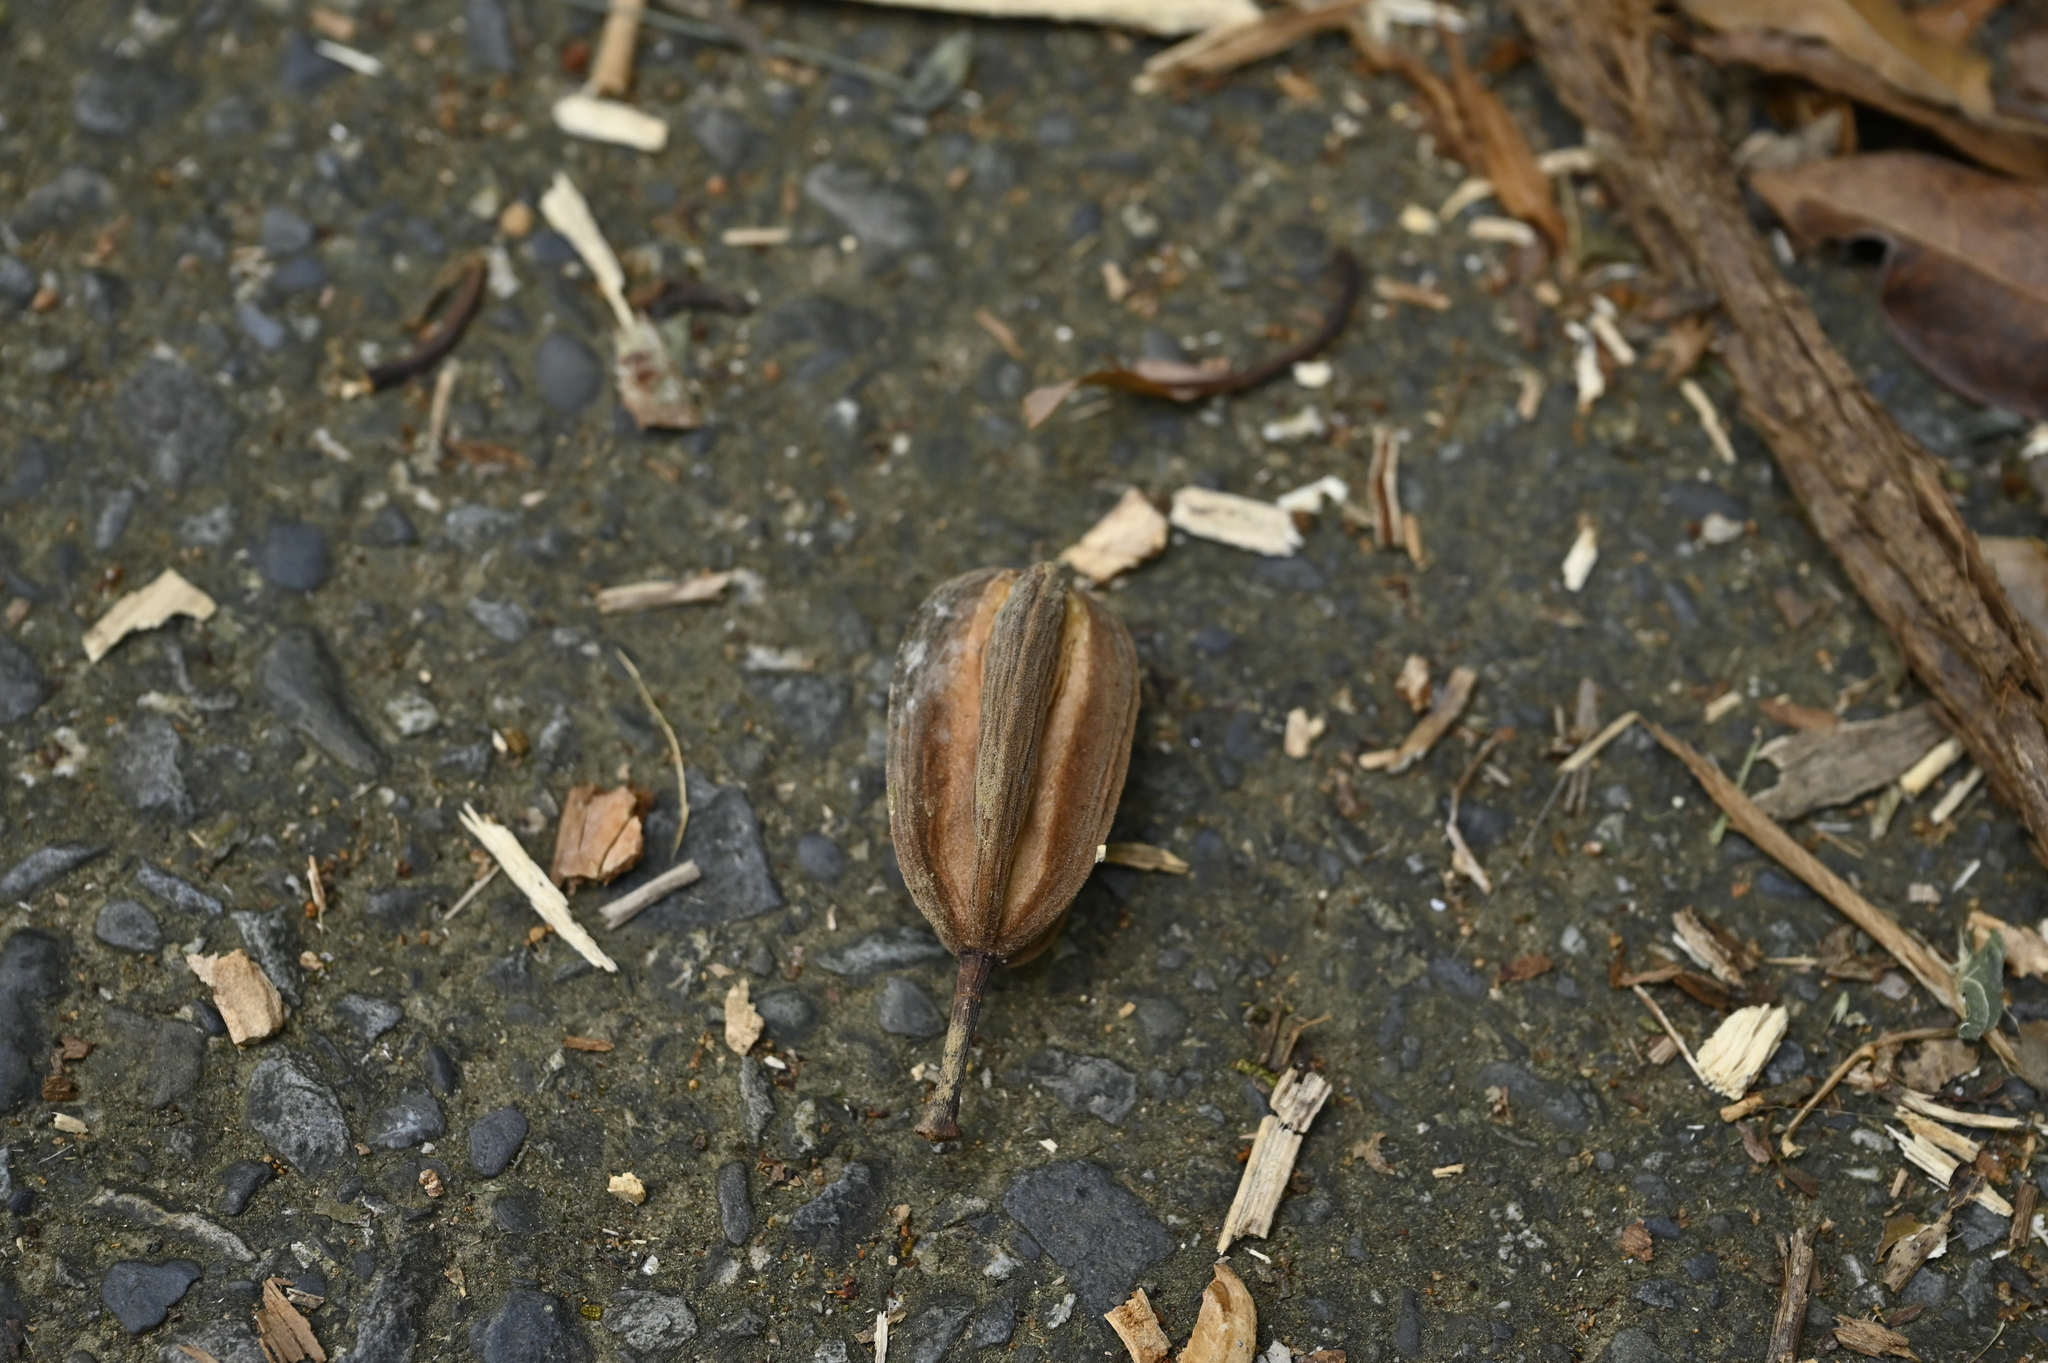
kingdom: Plantae
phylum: Tracheophyta
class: Magnoliopsida
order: Malvales
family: Malvaceae
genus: Reevesia
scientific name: Reevesia thyrsoidea
